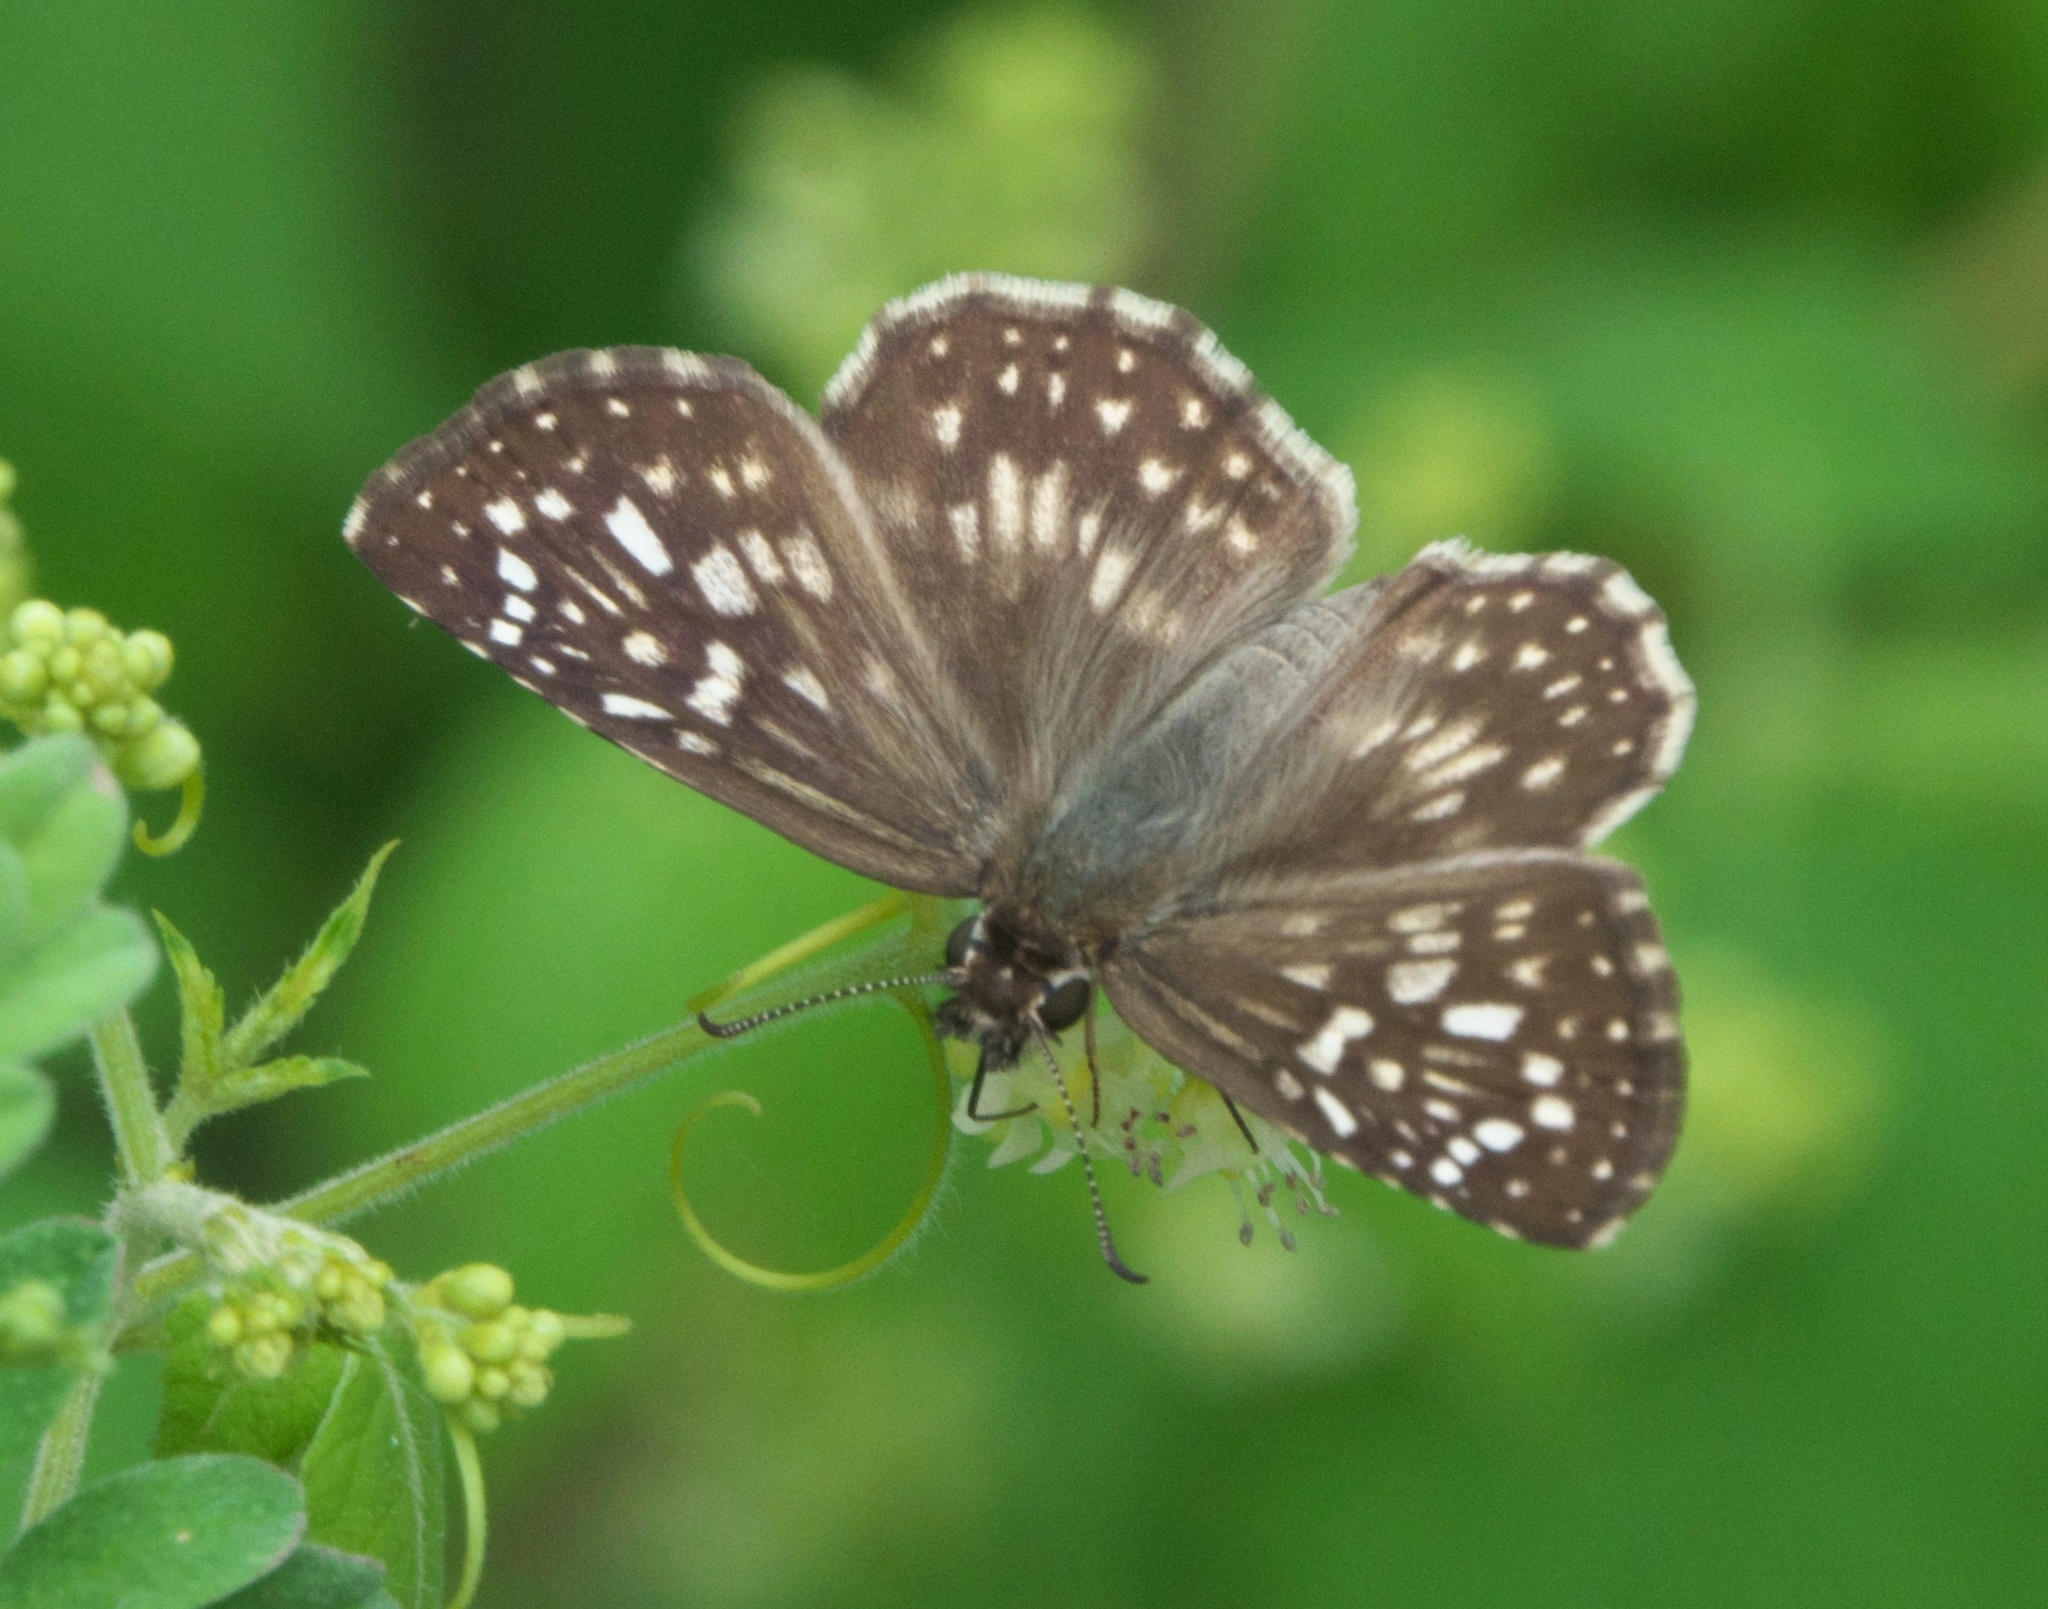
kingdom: Animalia
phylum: Arthropoda
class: Insecta
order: Lepidoptera
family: Hesperiidae
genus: Pyrgus
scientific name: Pyrgus oileus
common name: Tropical checkered-skipper
